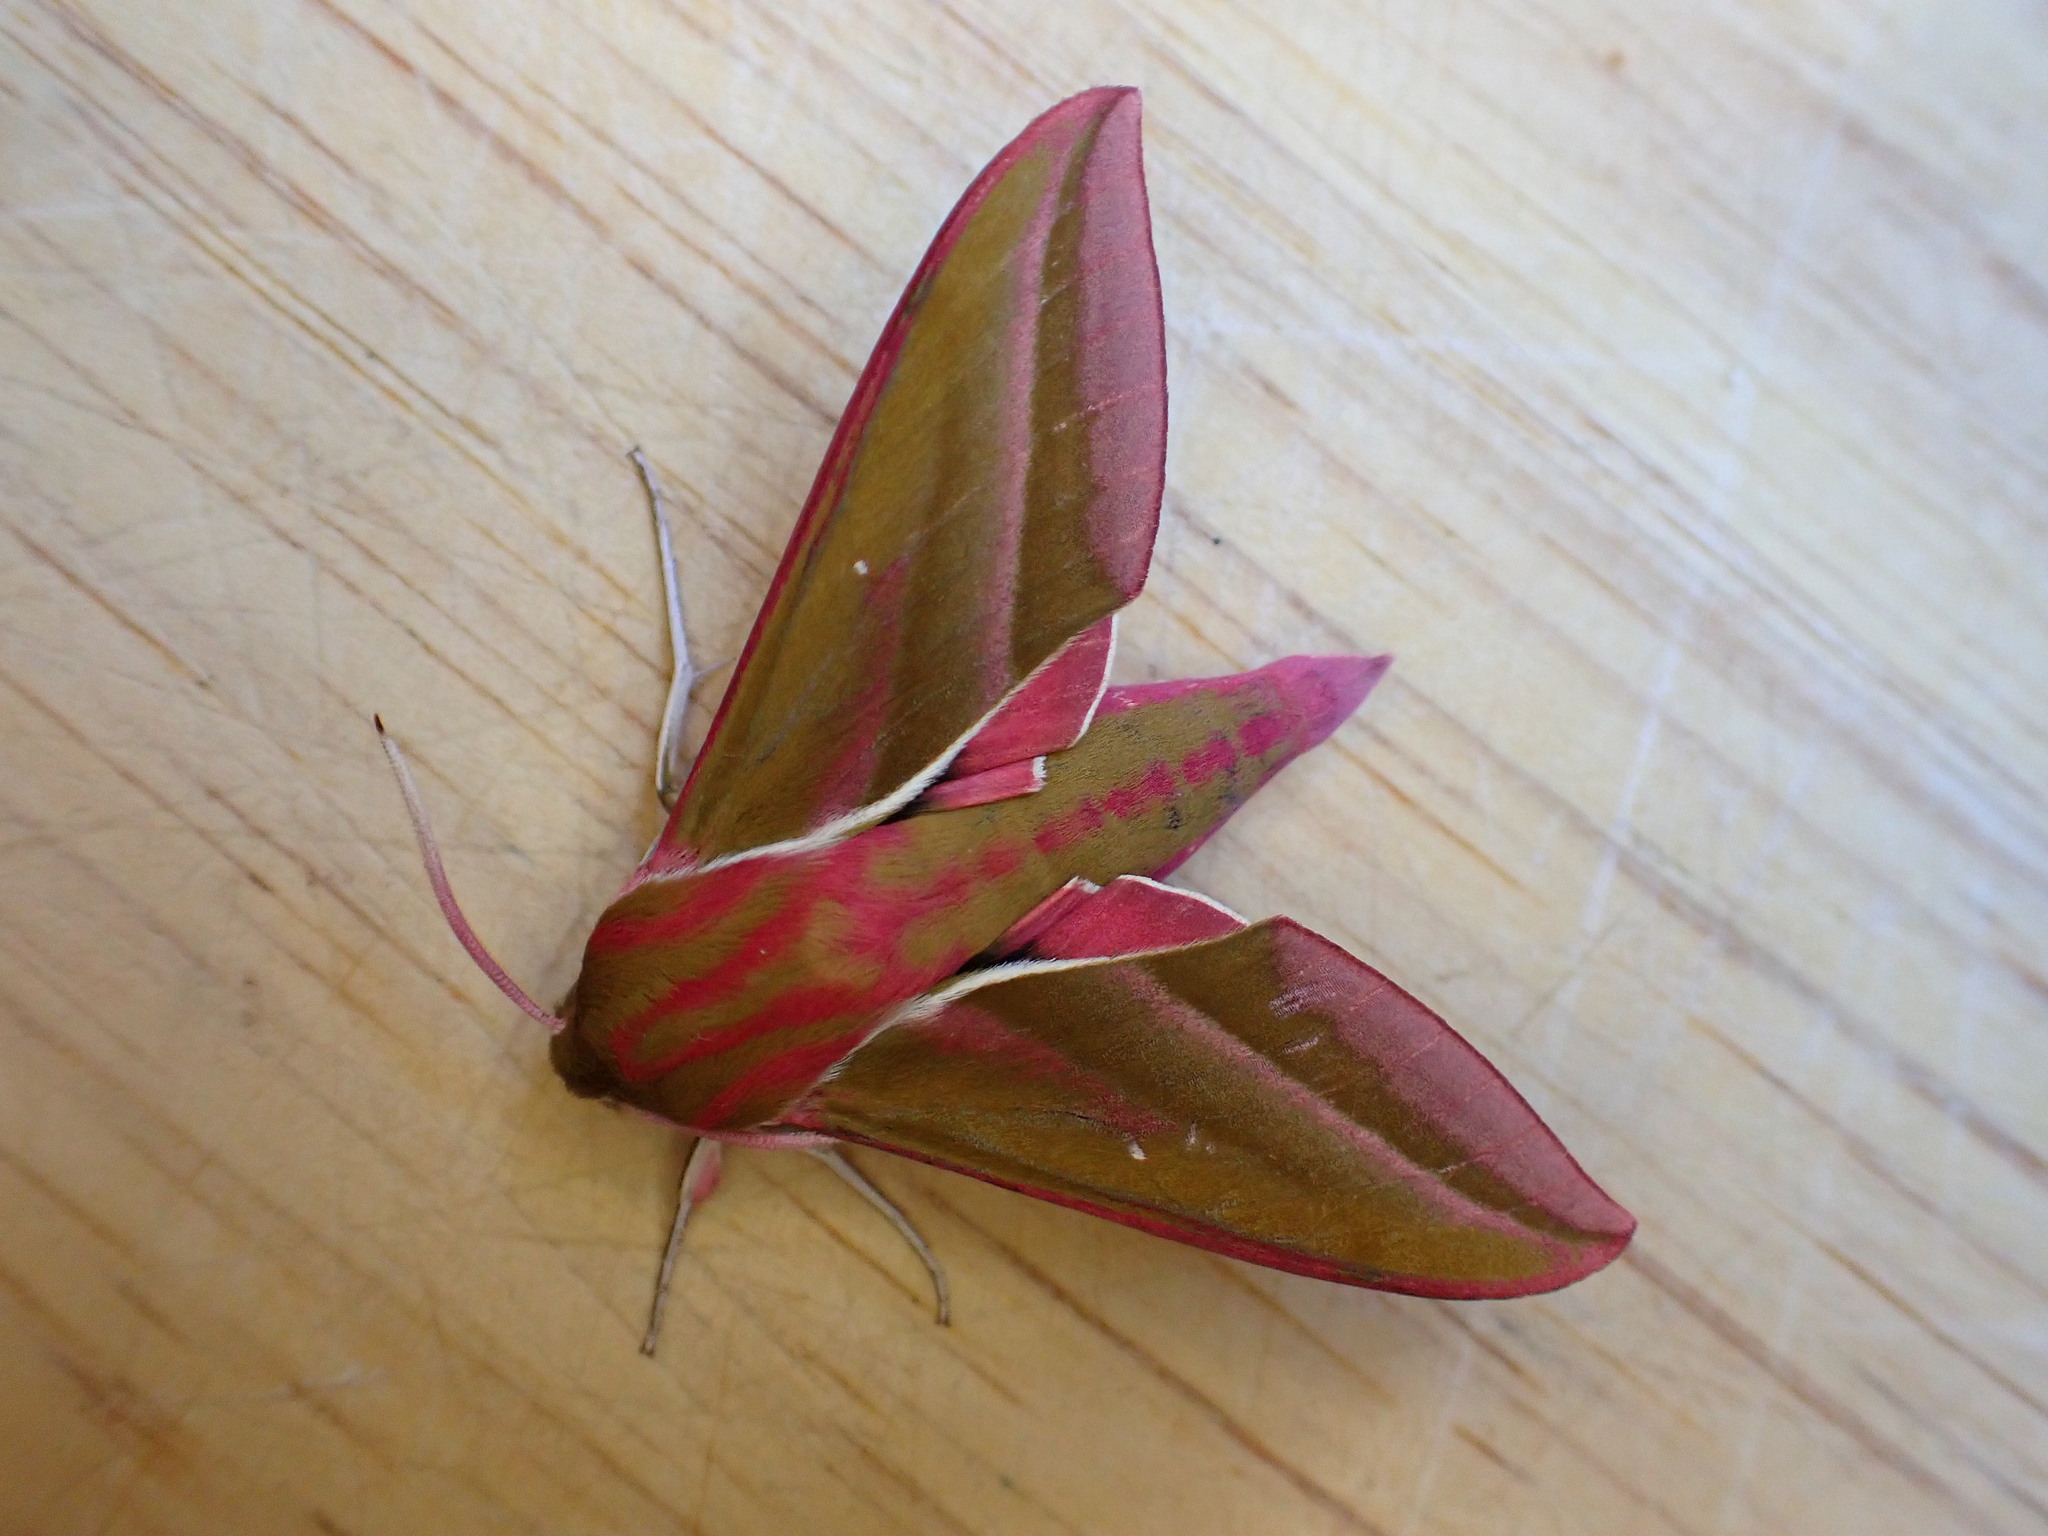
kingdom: Animalia
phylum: Arthropoda
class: Insecta
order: Lepidoptera
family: Sphingidae
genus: Deilephila
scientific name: Deilephila elpenor
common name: Elephant hawk-moth
